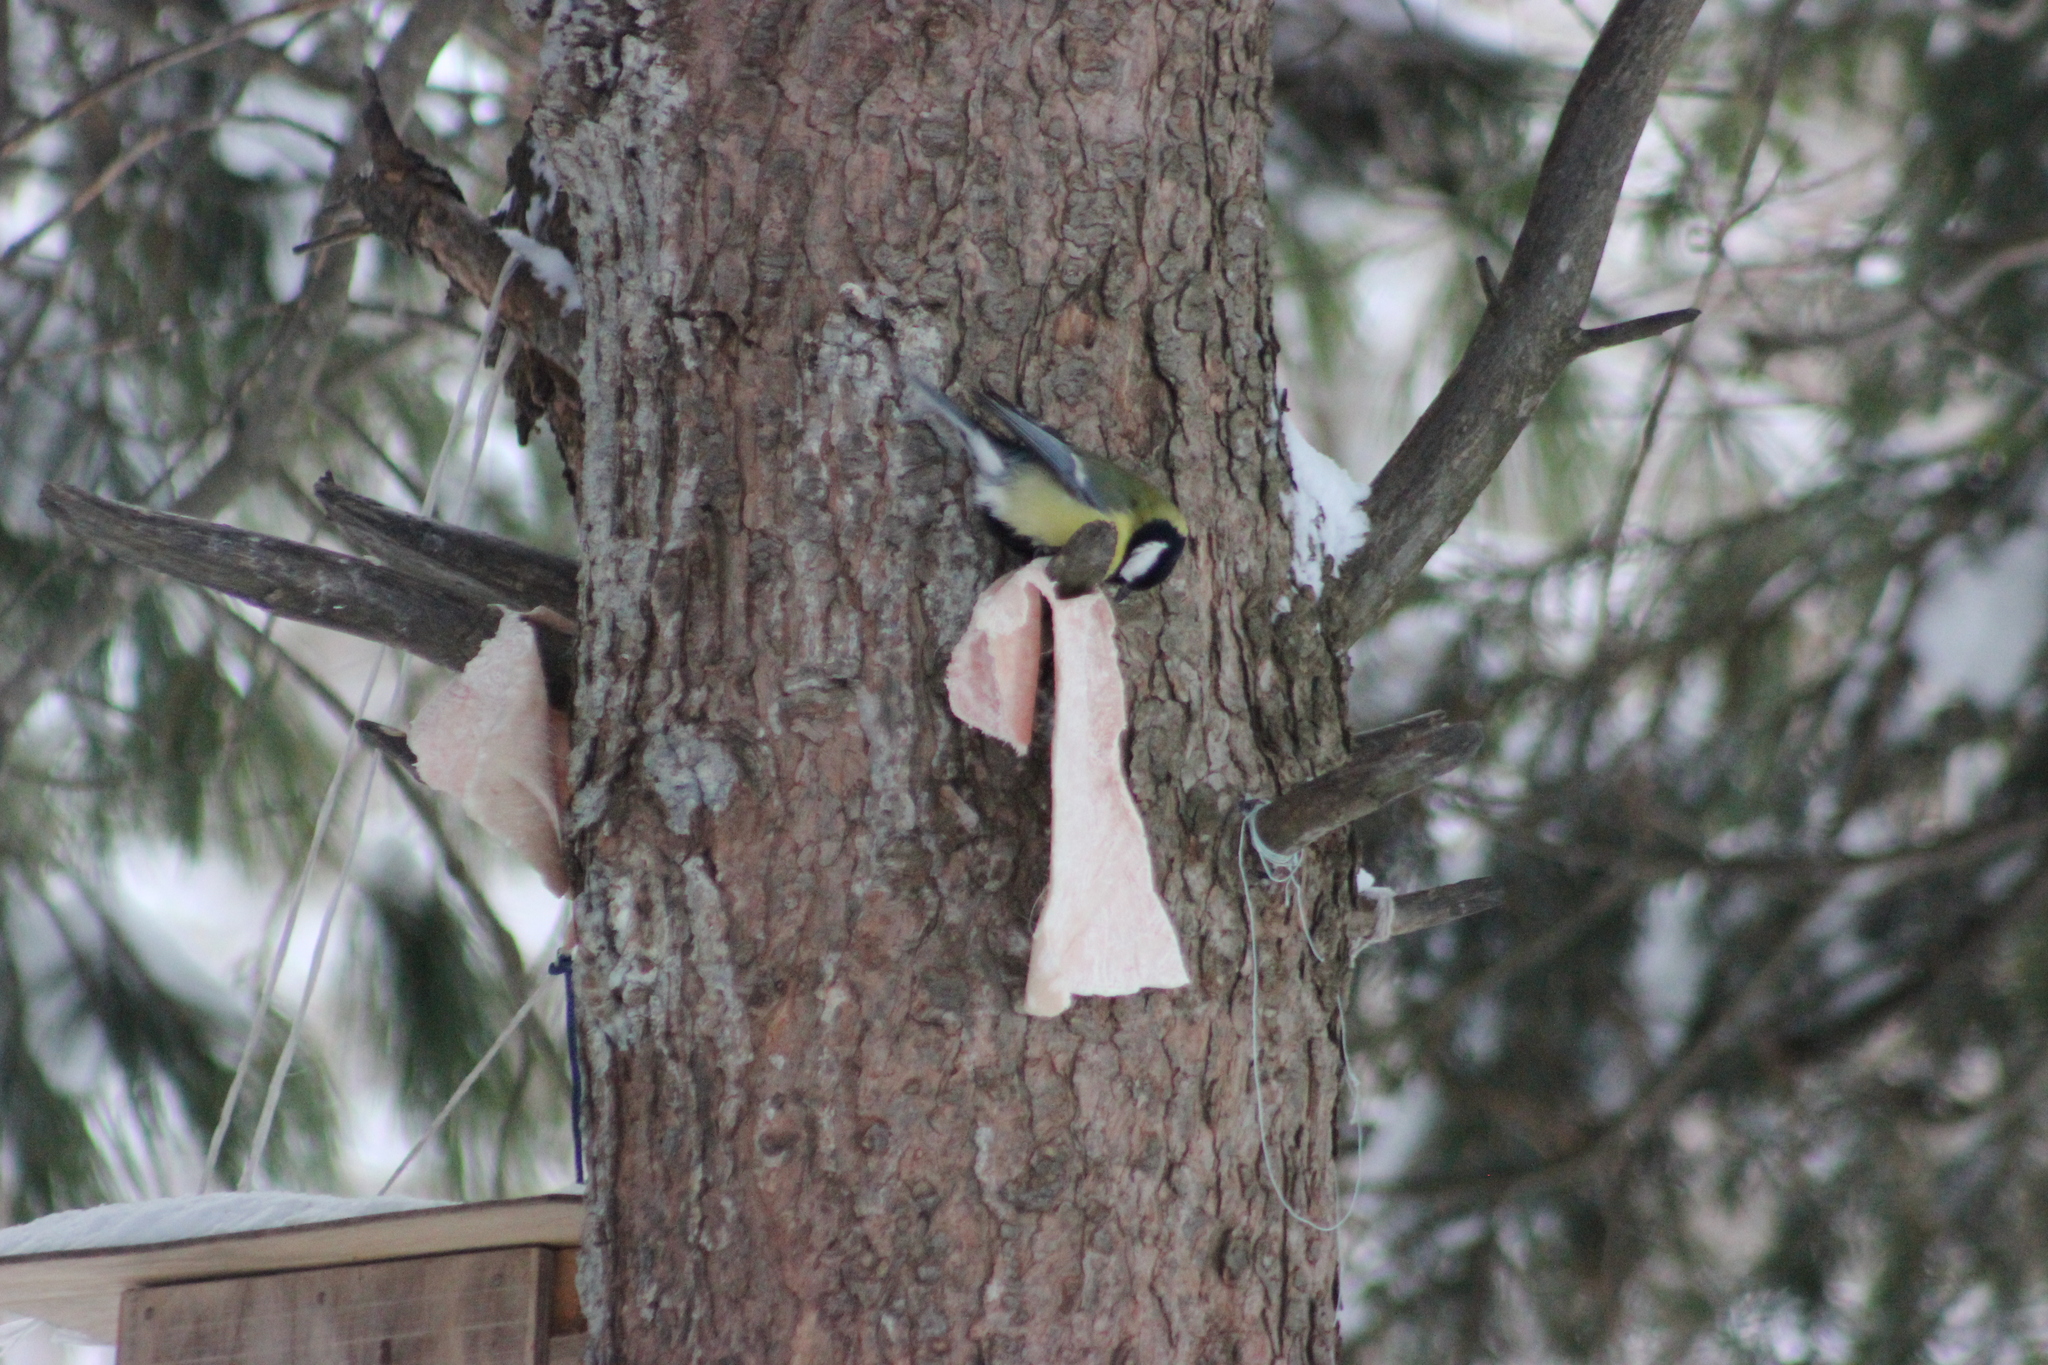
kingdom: Animalia
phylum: Chordata
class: Aves
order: Passeriformes
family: Paridae
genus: Parus
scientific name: Parus major
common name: Great tit
